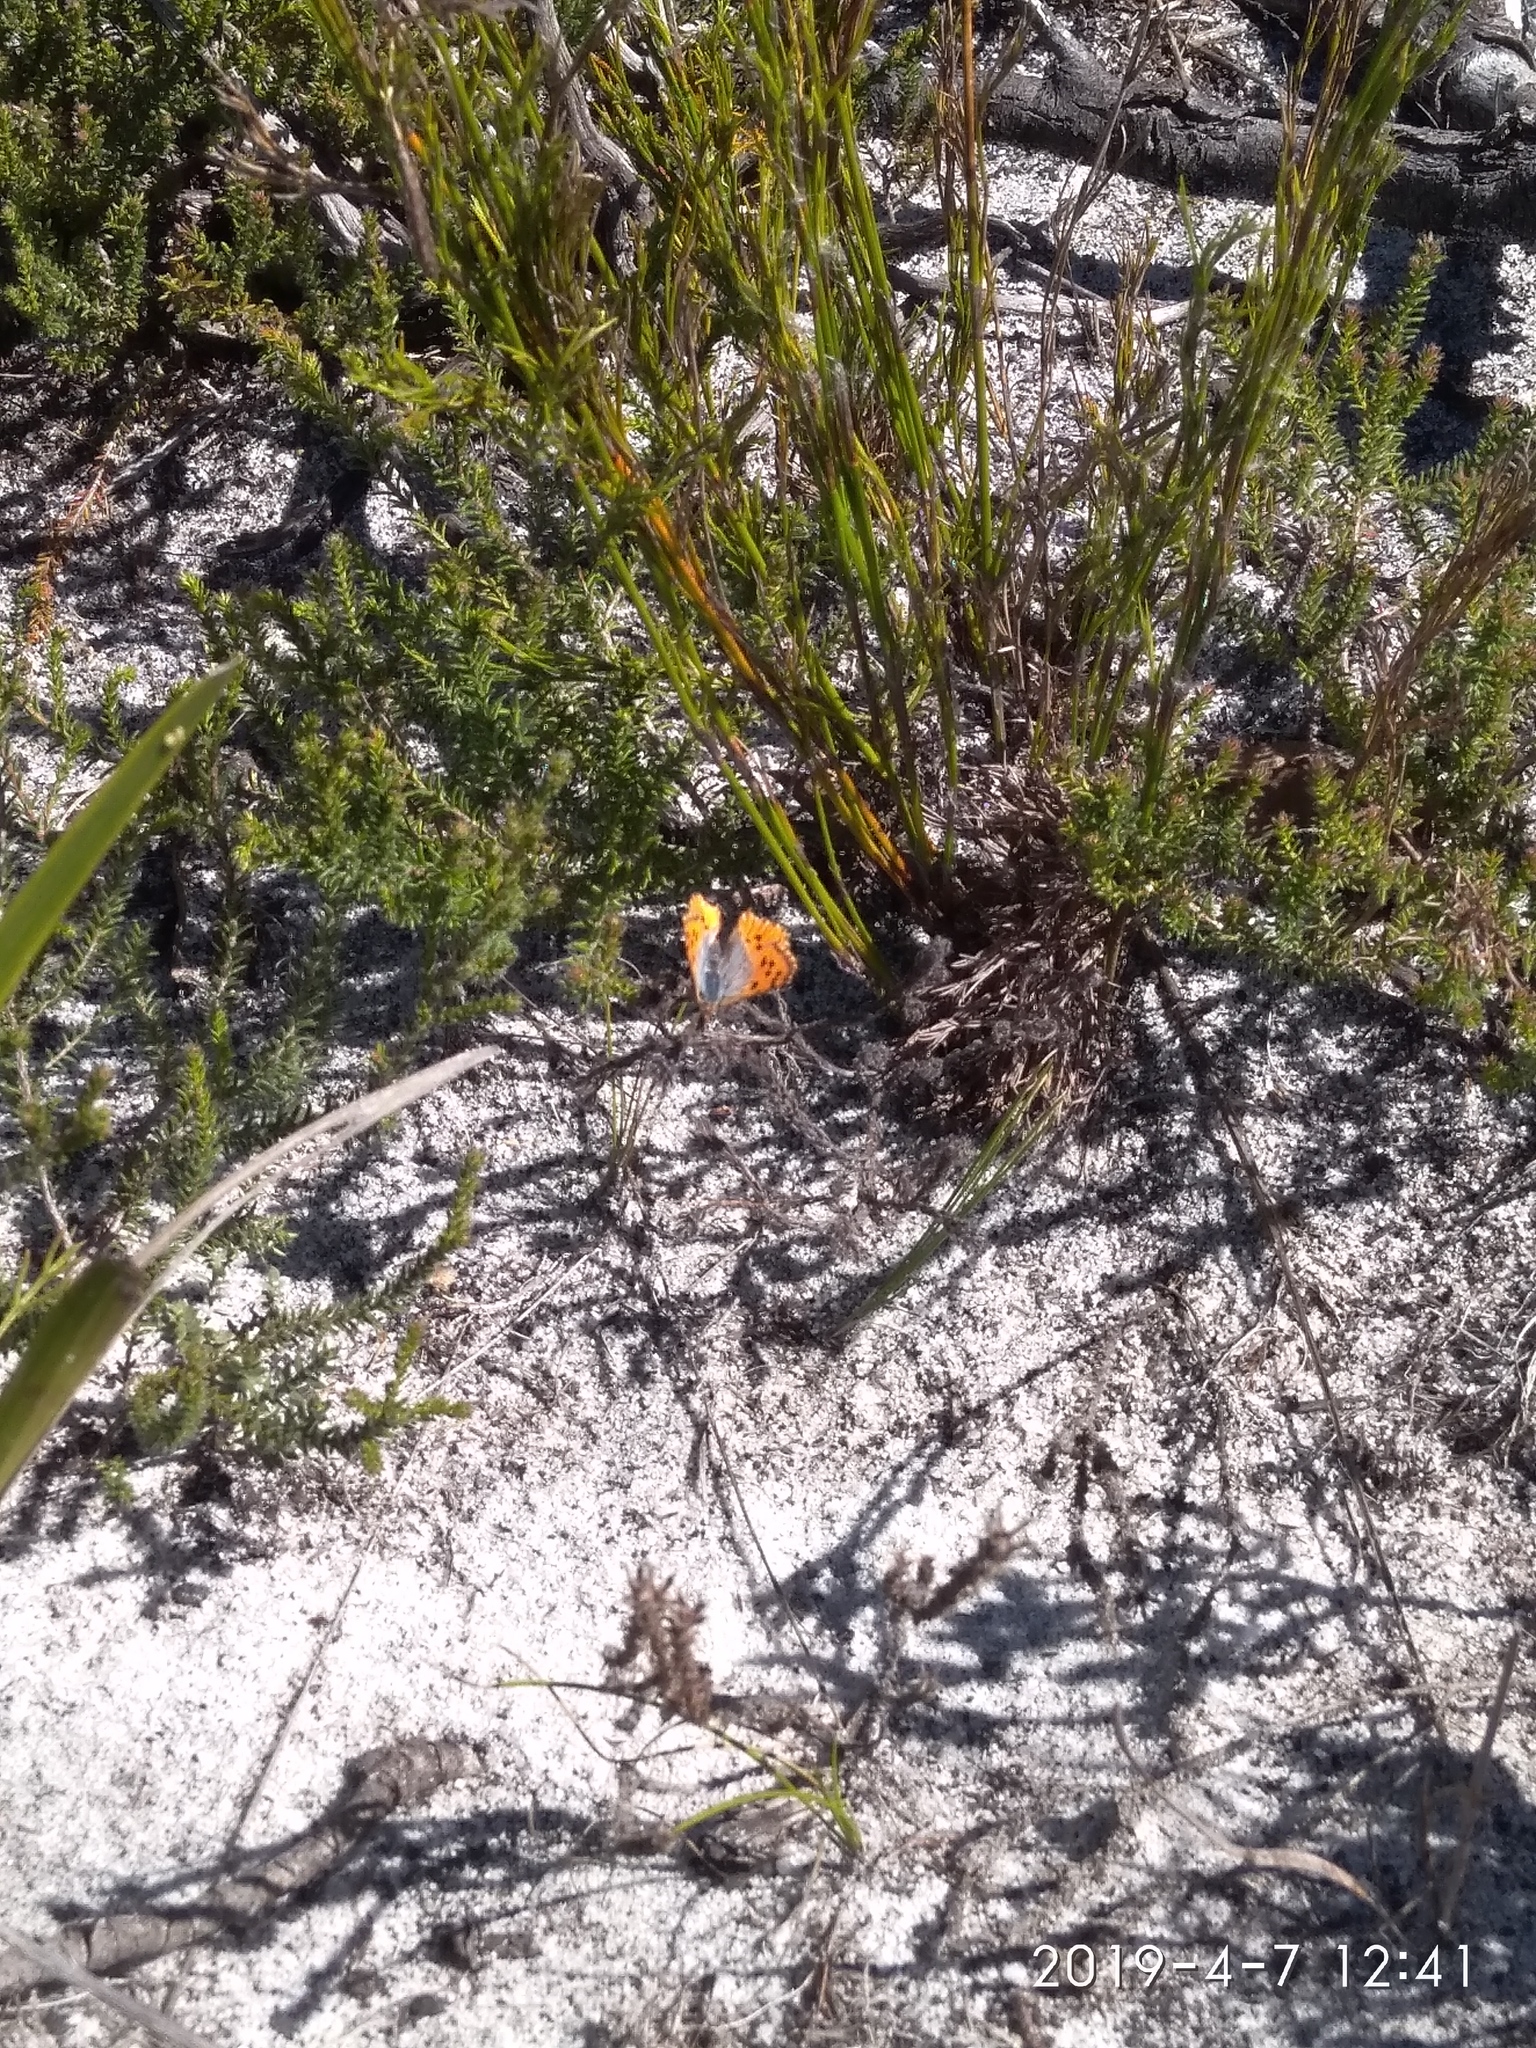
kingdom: Animalia
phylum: Arthropoda
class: Insecta
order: Lepidoptera
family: Lycaenidae
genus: Chrysoritis
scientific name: Chrysoritis thysbe
